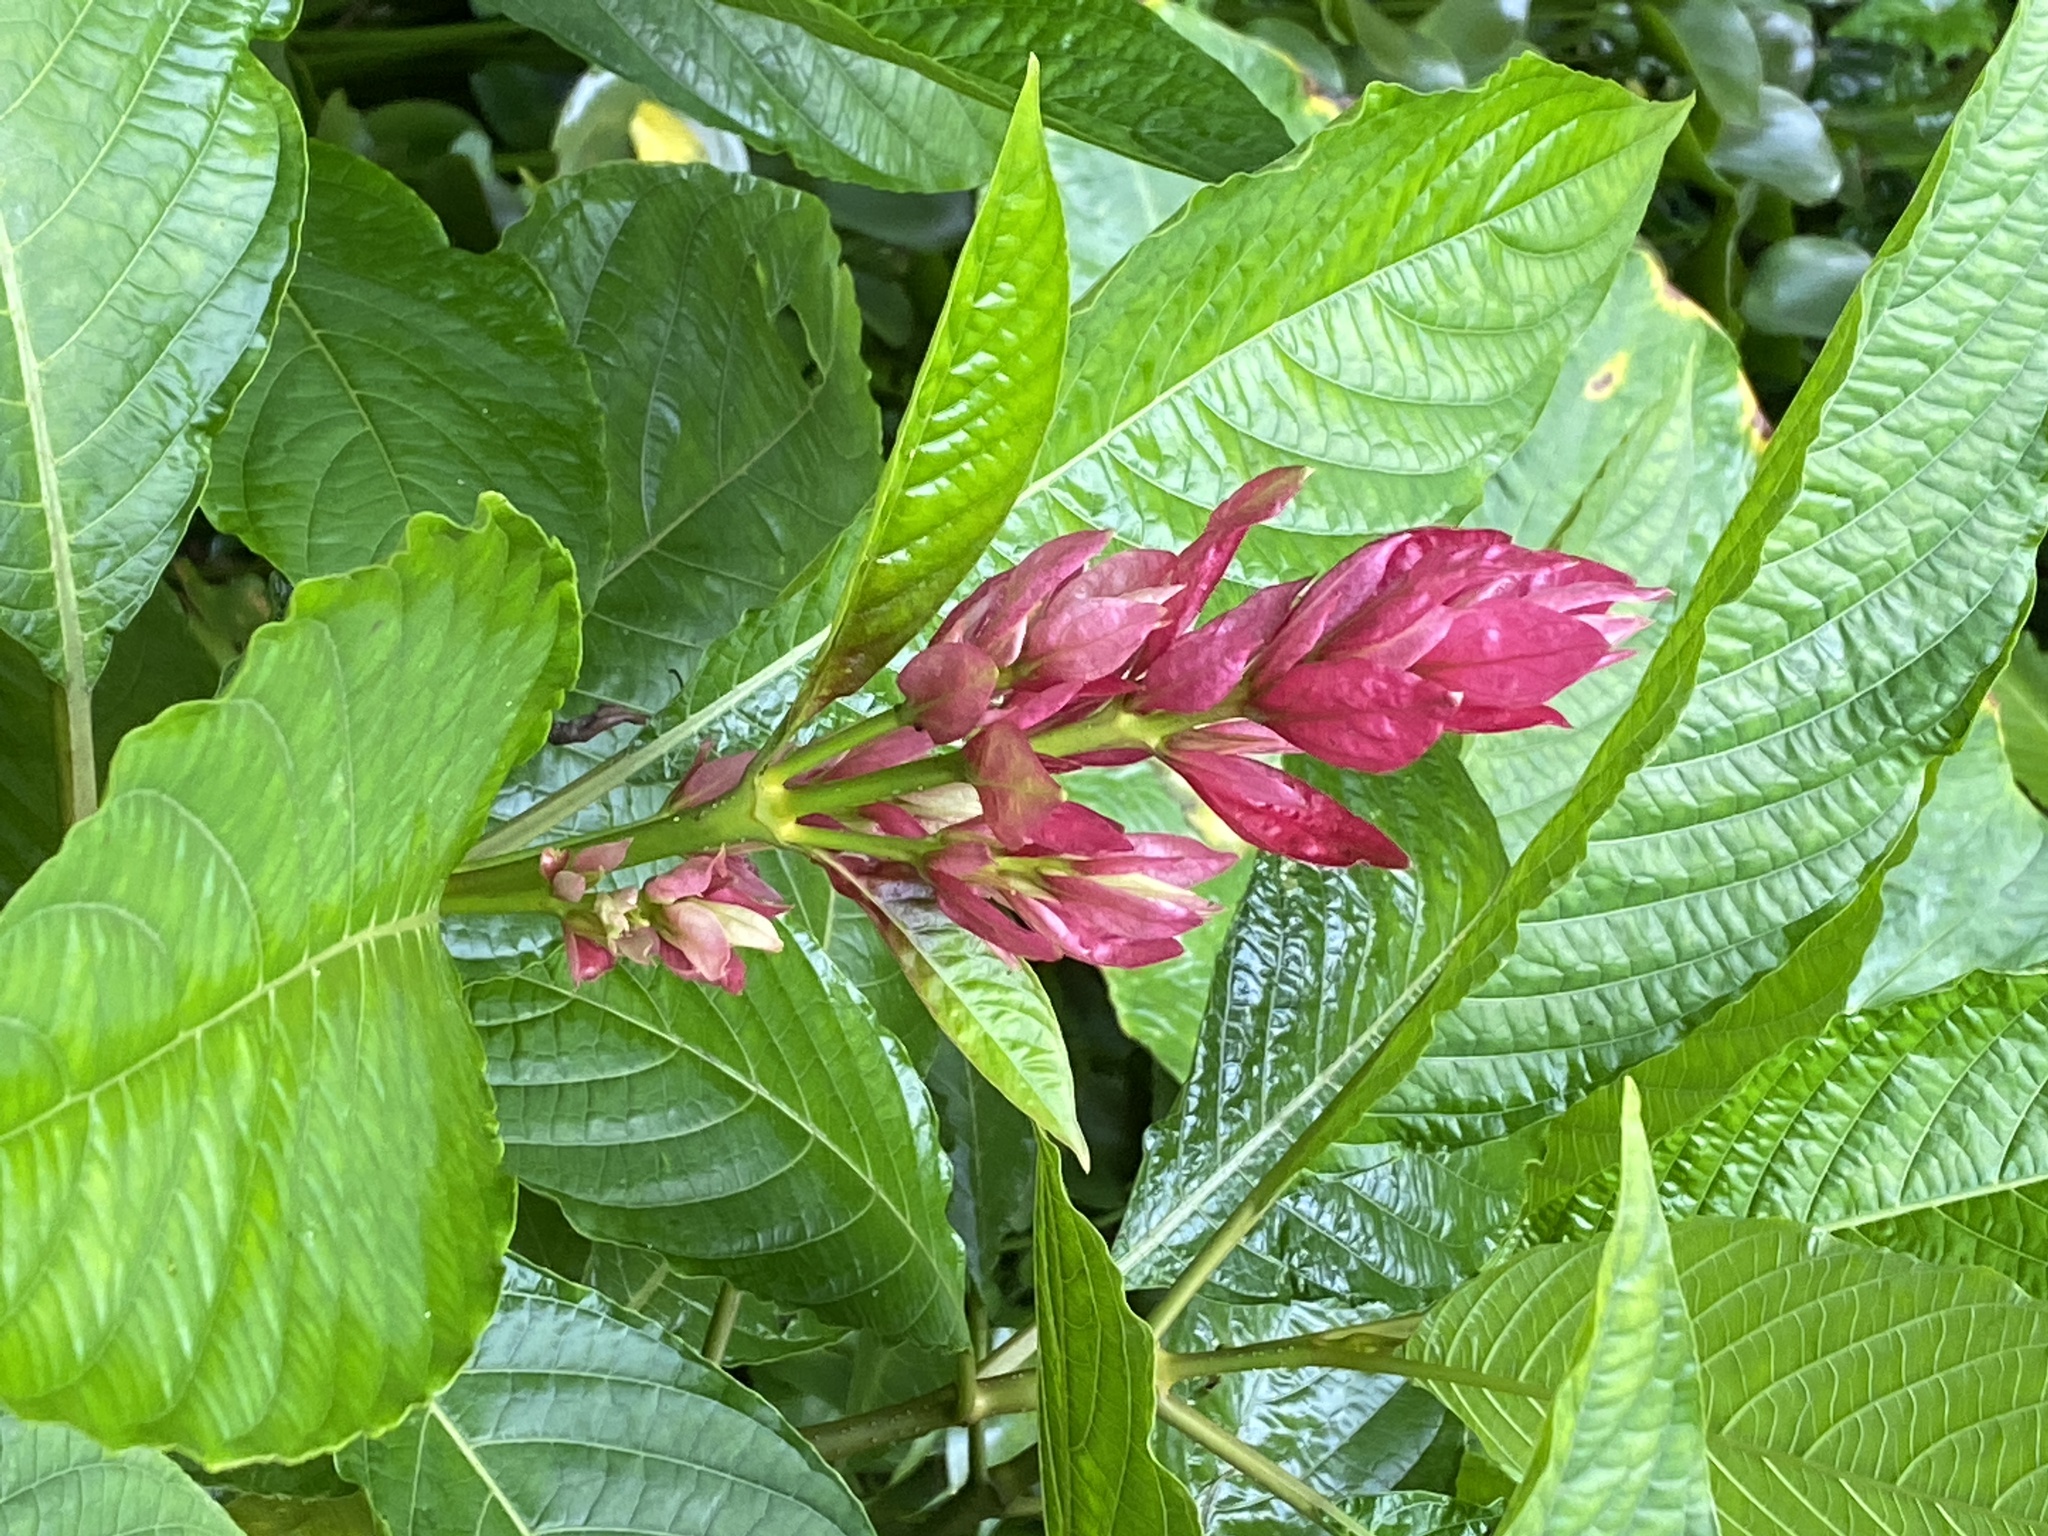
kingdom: Plantae
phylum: Tracheophyta
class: Magnoliopsida
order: Lamiales
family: Acanthaceae
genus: Megaskepasma
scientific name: Megaskepasma erythrochlamys
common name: Brazilian red-cloak
